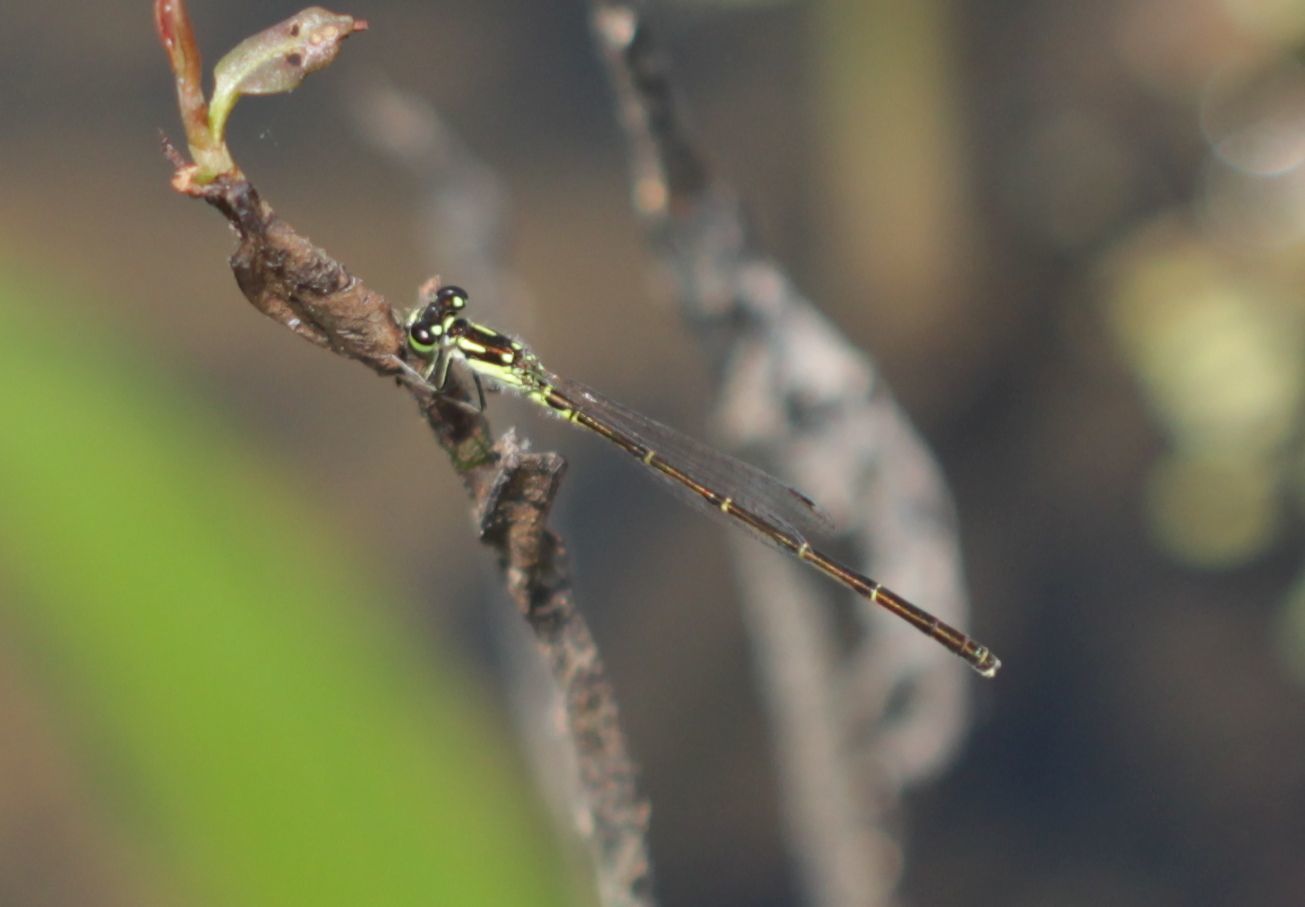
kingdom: Animalia
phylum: Arthropoda
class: Insecta
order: Odonata
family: Coenagrionidae
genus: Ischnura
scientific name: Ischnura posita
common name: Fragile forktail
